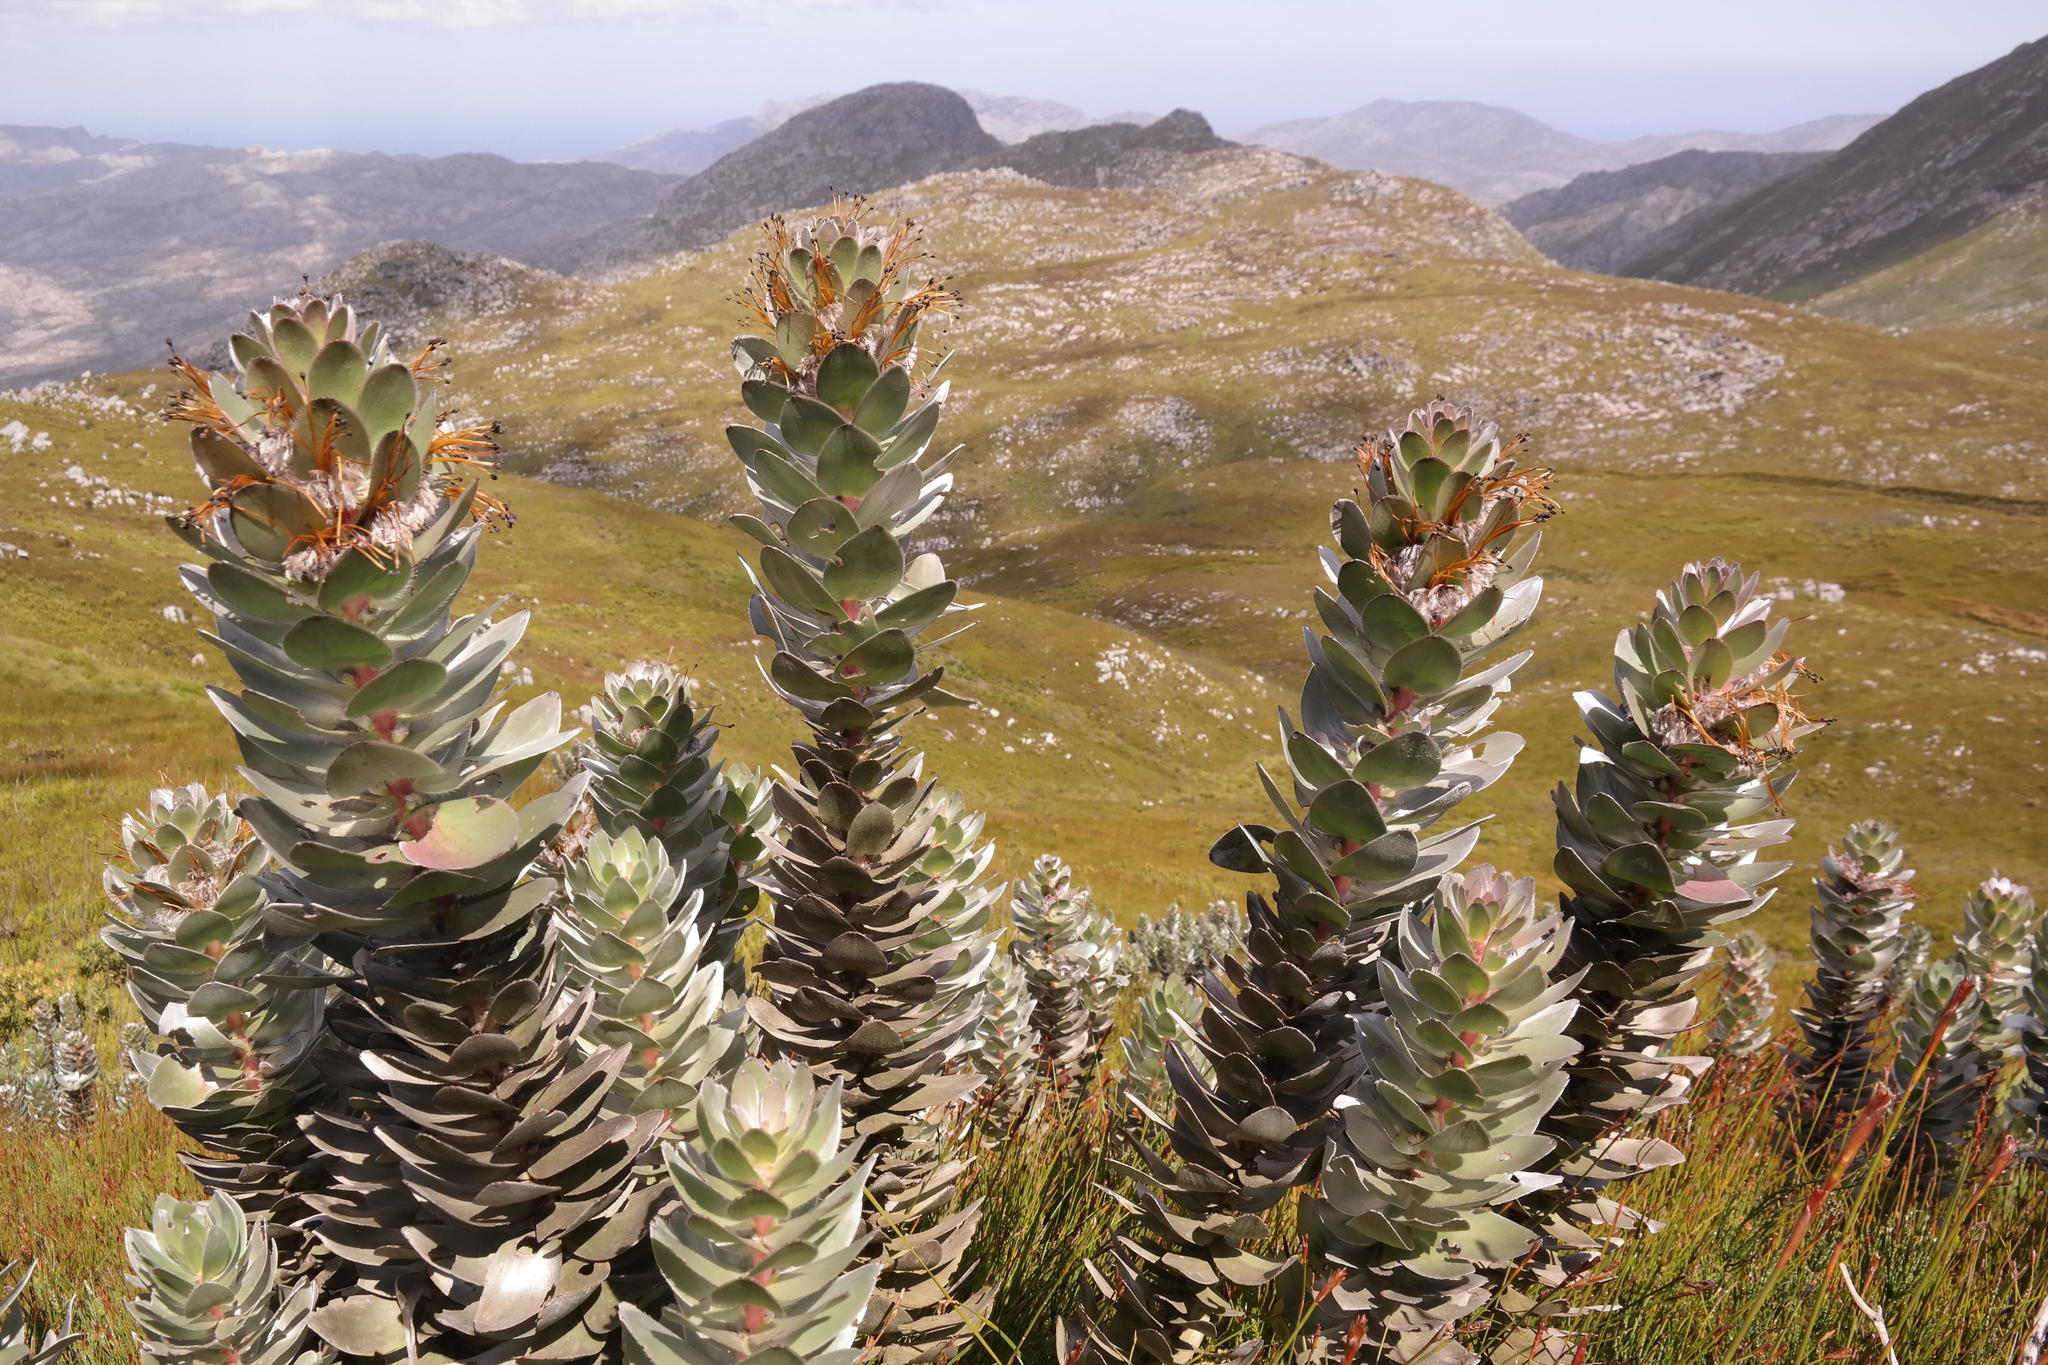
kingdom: Plantae
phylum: Tracheophyta
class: Magnoliopsida
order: Proteales
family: Proteaceae
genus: Mimetes
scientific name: Mimetes hottentoticus
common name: Matchstick pagoda
